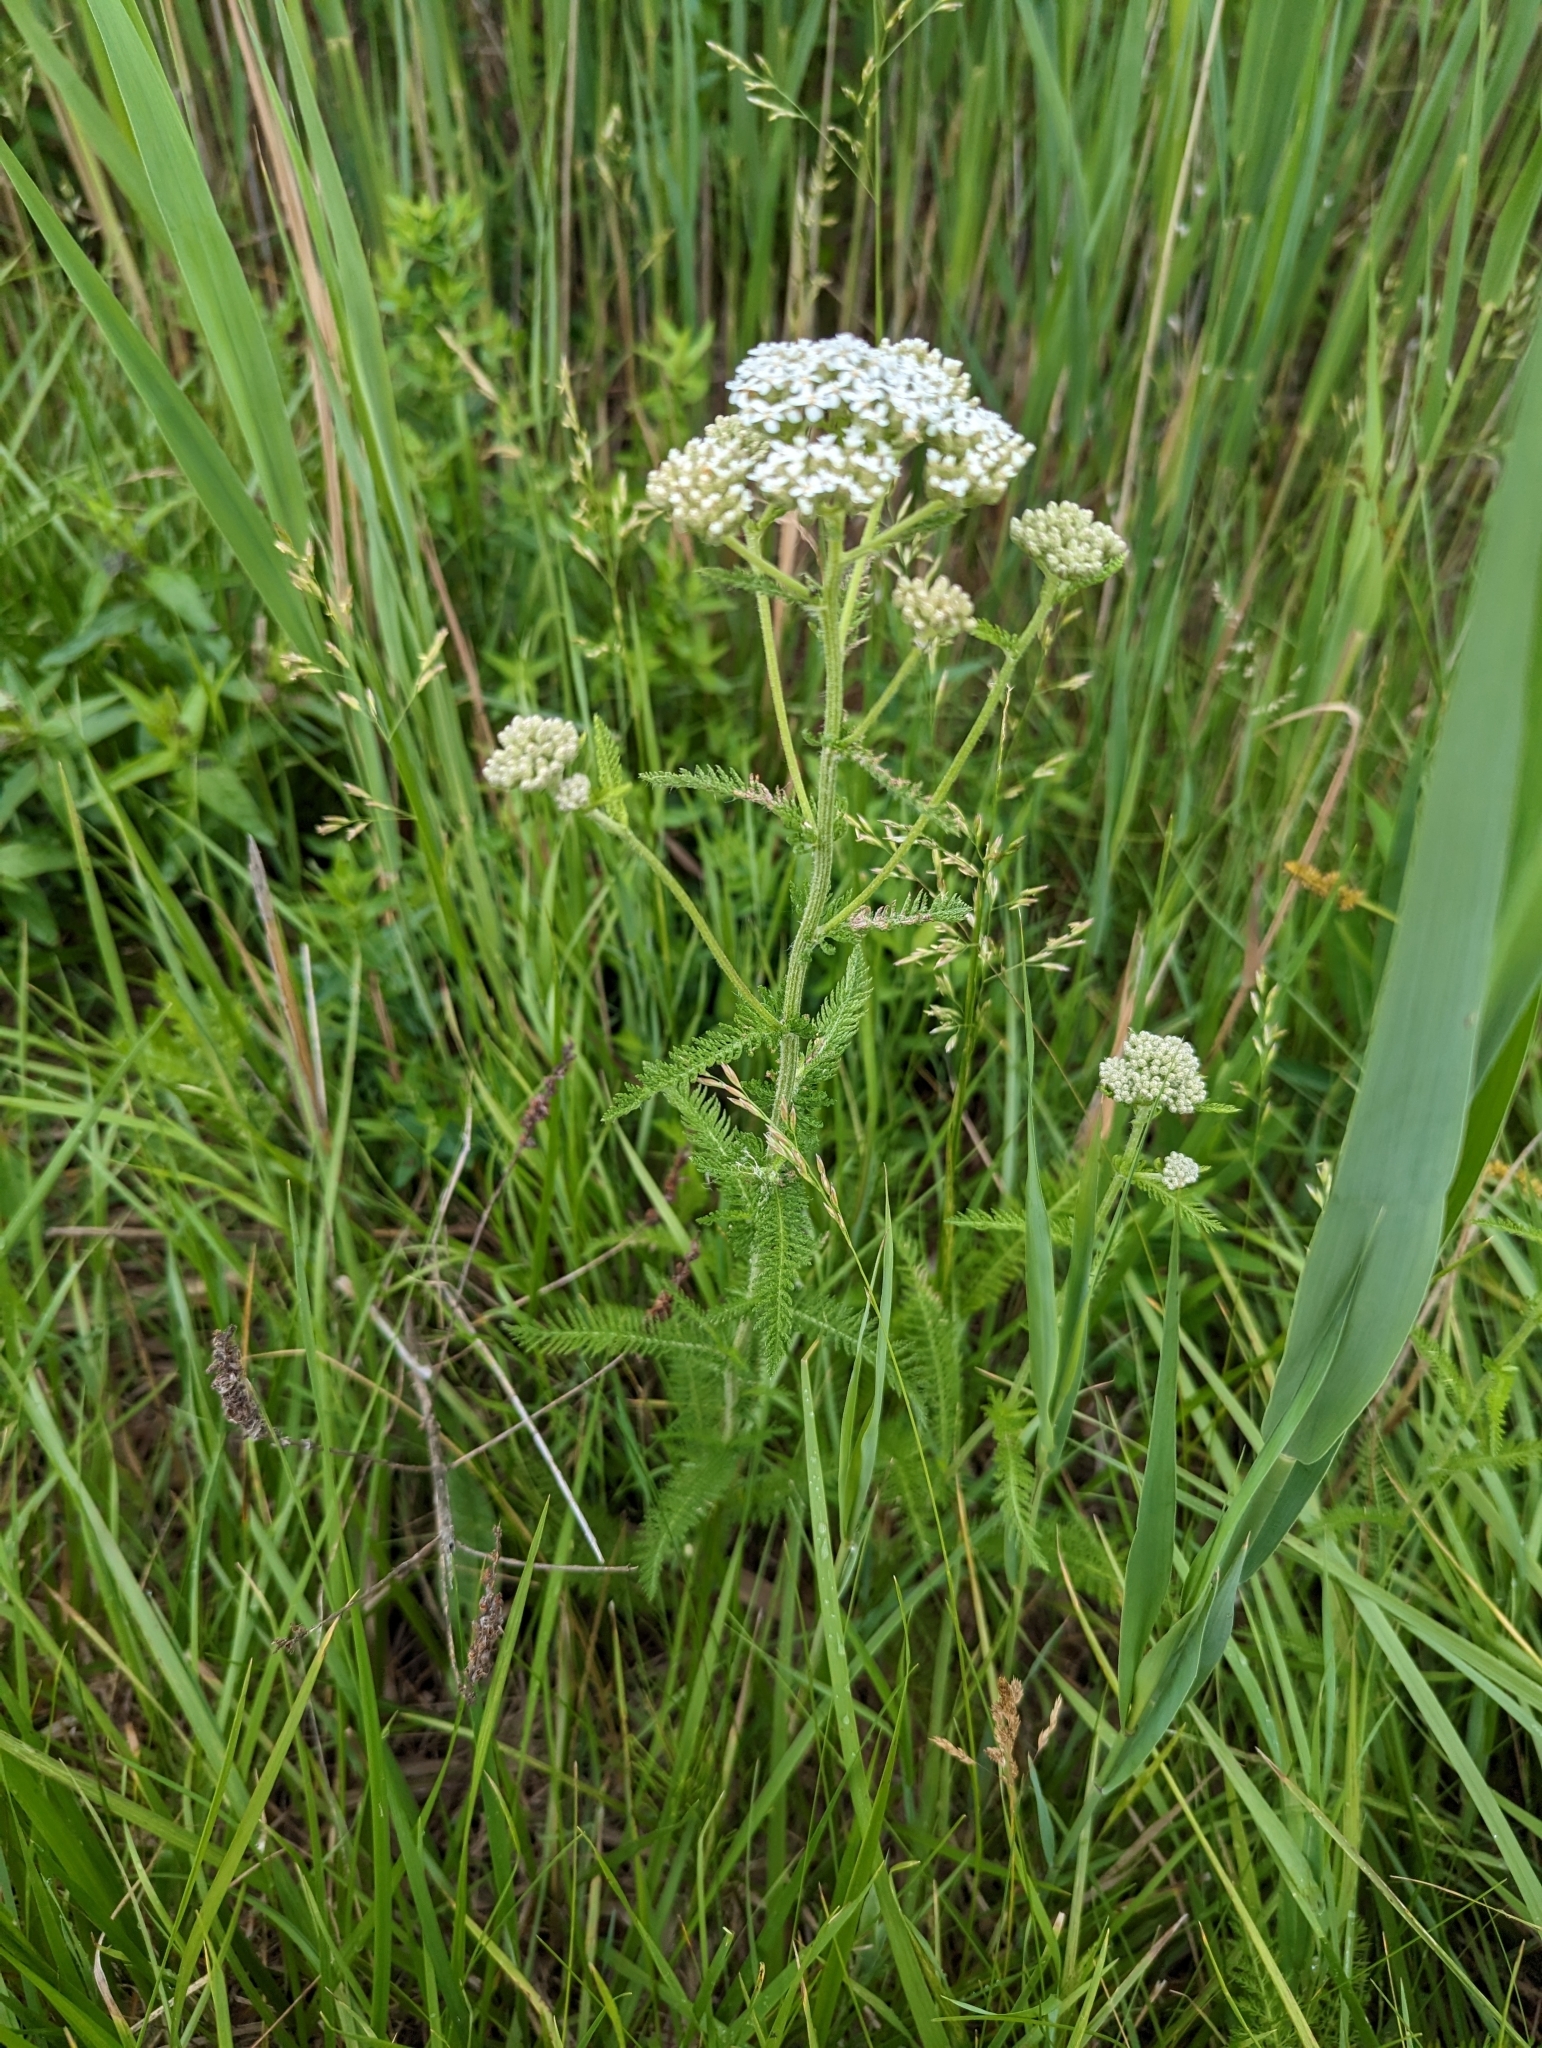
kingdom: Plantae
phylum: Tracheophyta
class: Magnoliopsida
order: Asterales
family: Asteraceae
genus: Achillea
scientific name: Achillea millefolium
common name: Yarrow
